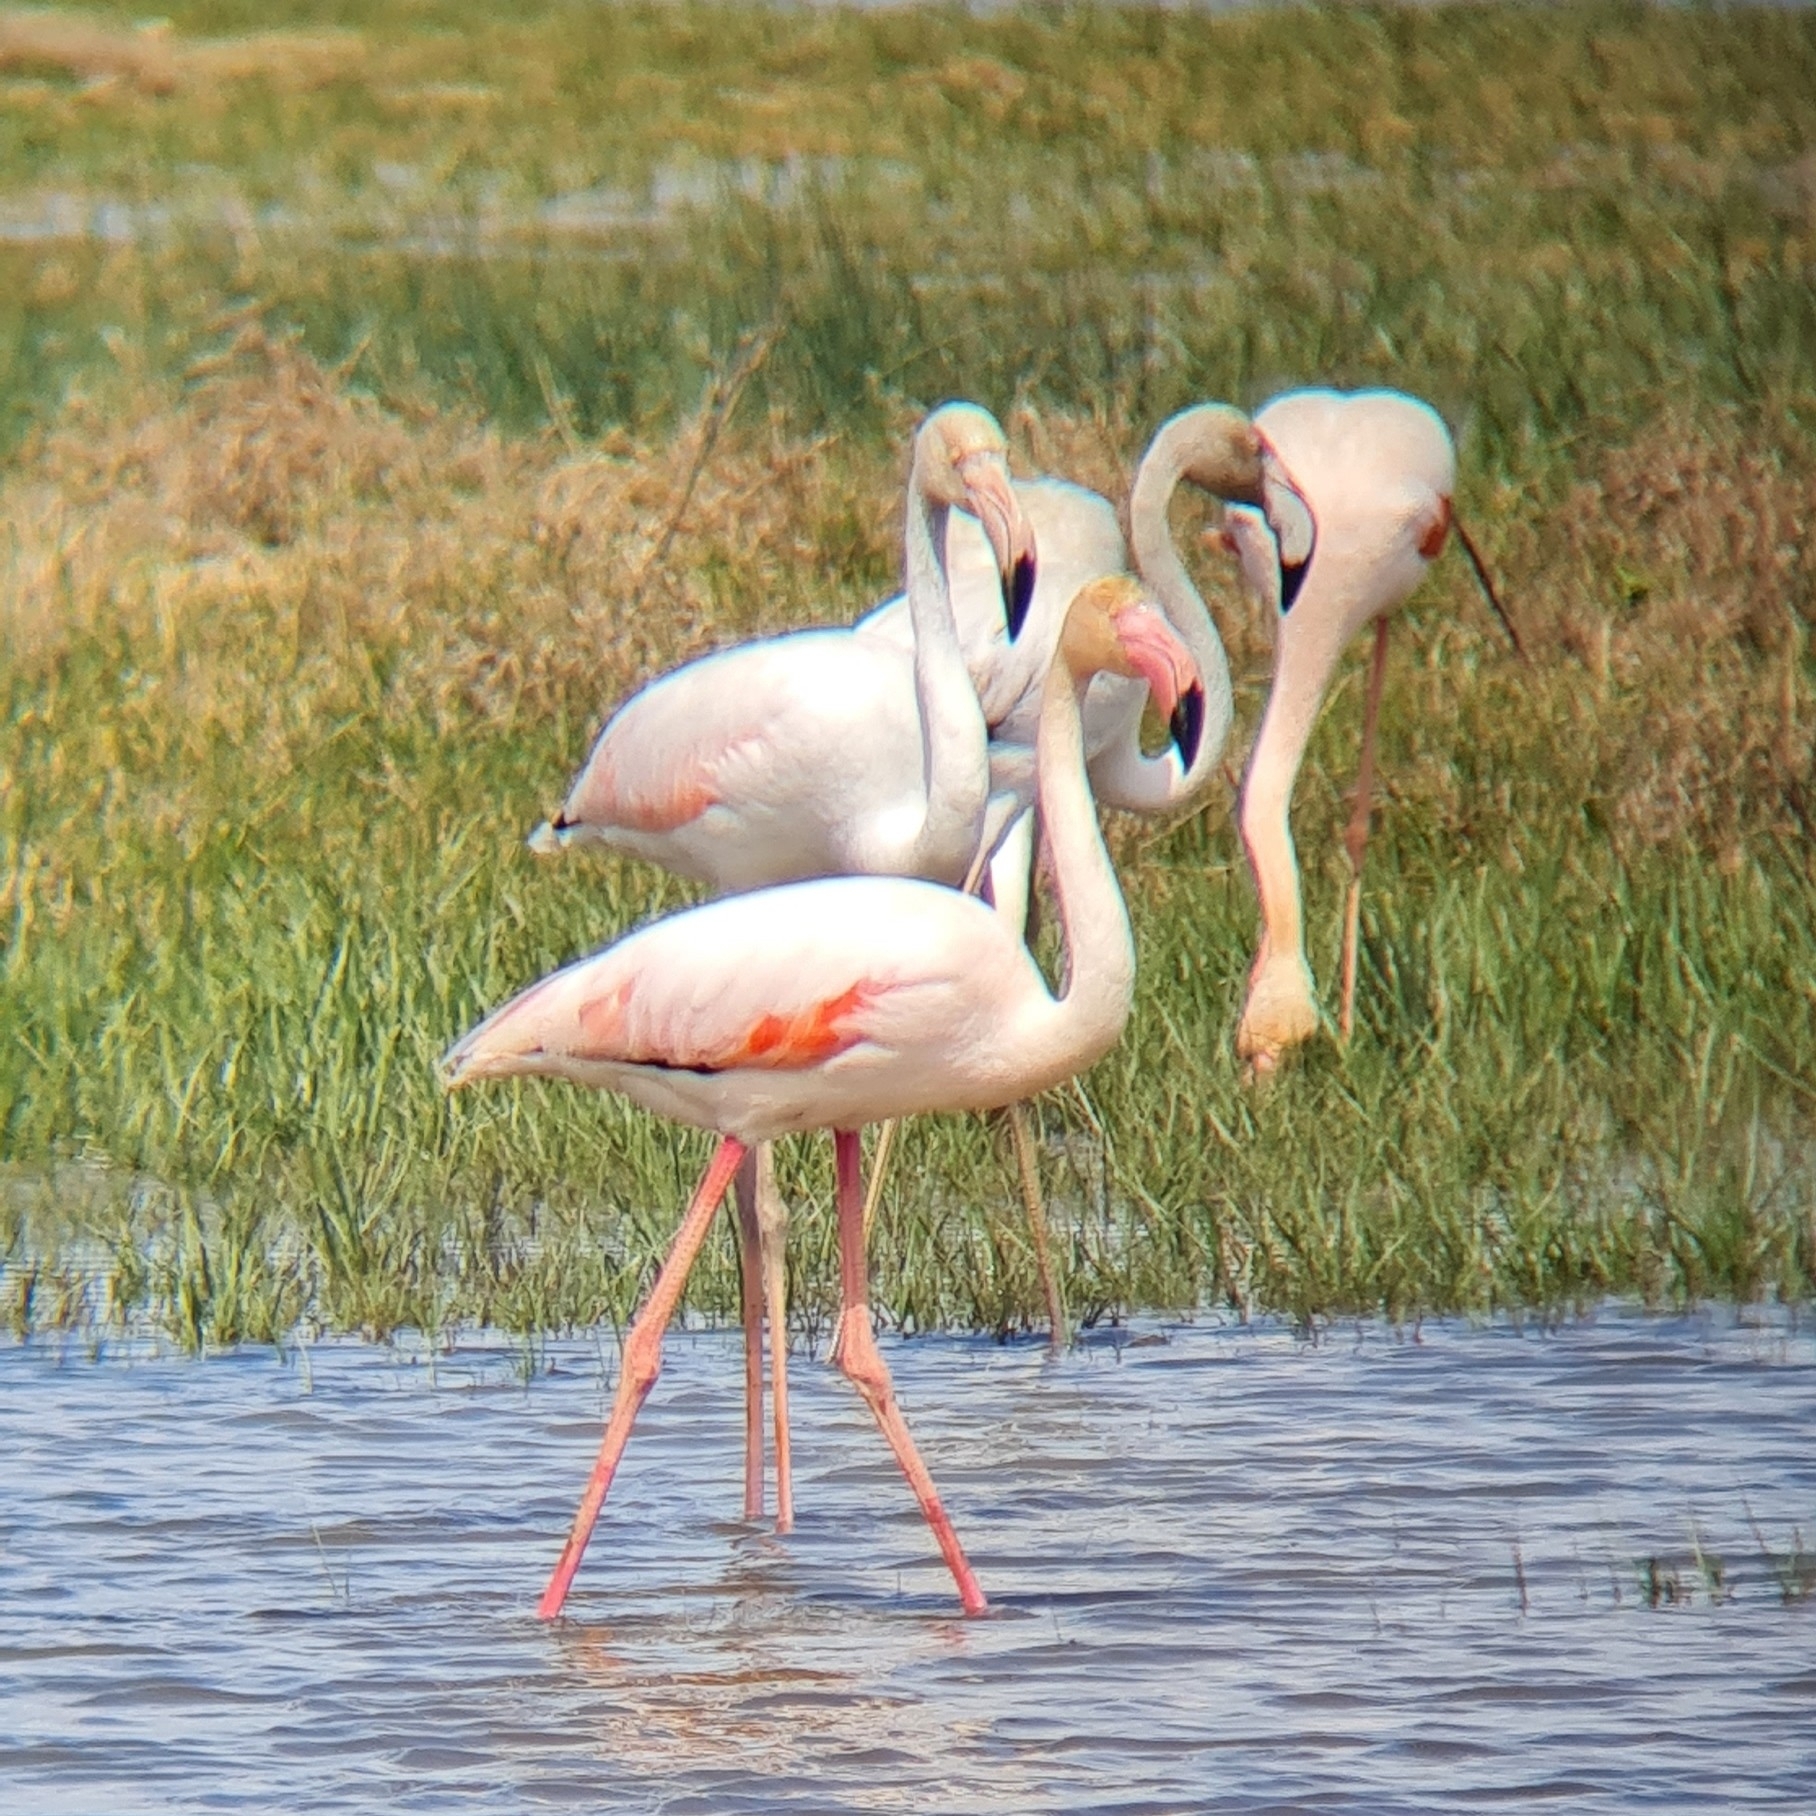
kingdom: Animalia
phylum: Chordata
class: Aves
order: Phoenicopteriformes
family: Phoenicopteridae
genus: Phoenicopterus
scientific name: Phoenicopterus roseus
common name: Greater flamingo
